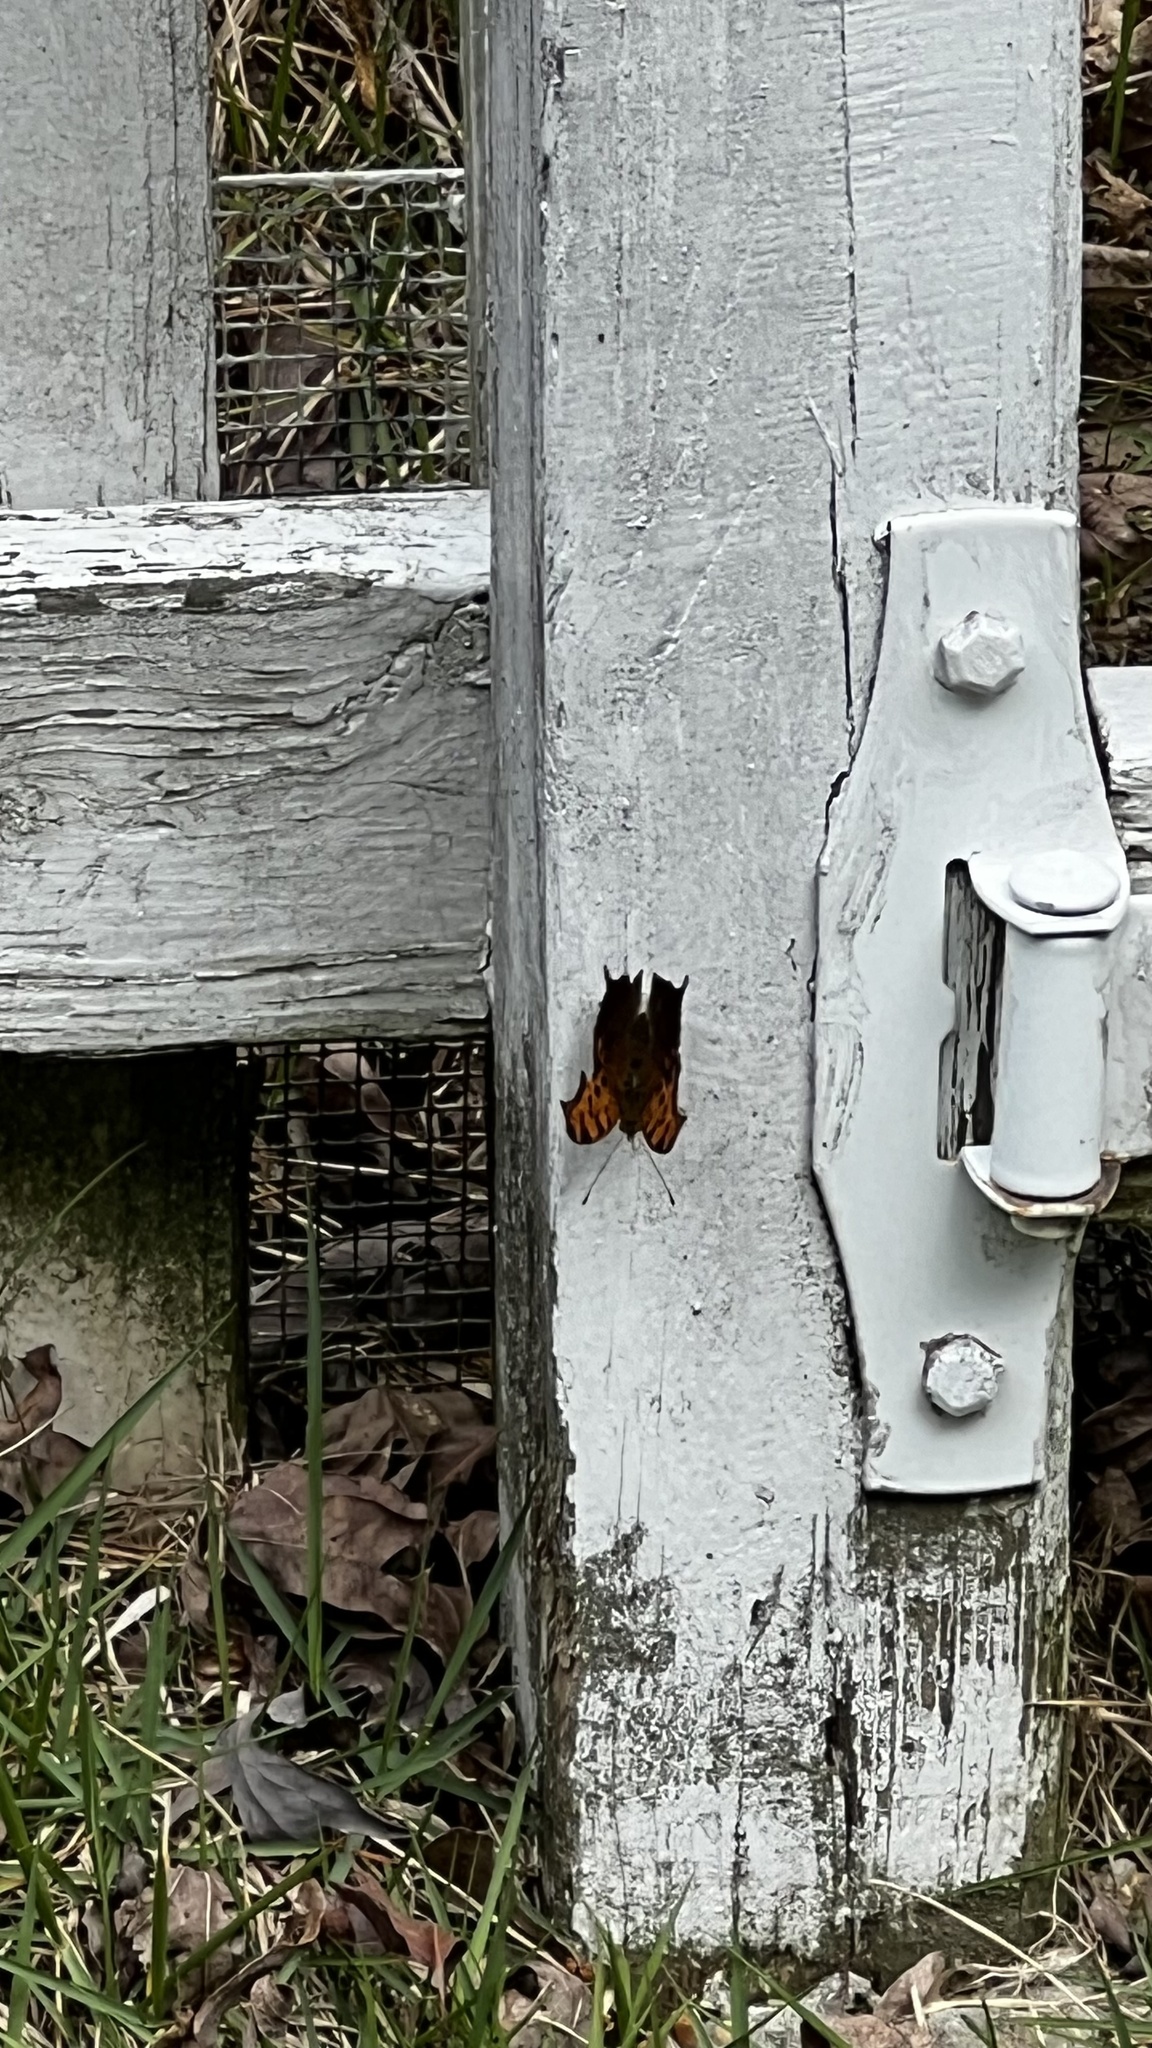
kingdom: Animalia
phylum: Arthropoda
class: Insecta
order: Lepidoptera
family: Nymphalidae
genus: Polygonia
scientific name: Polygonia interrogationis
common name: Question mark
